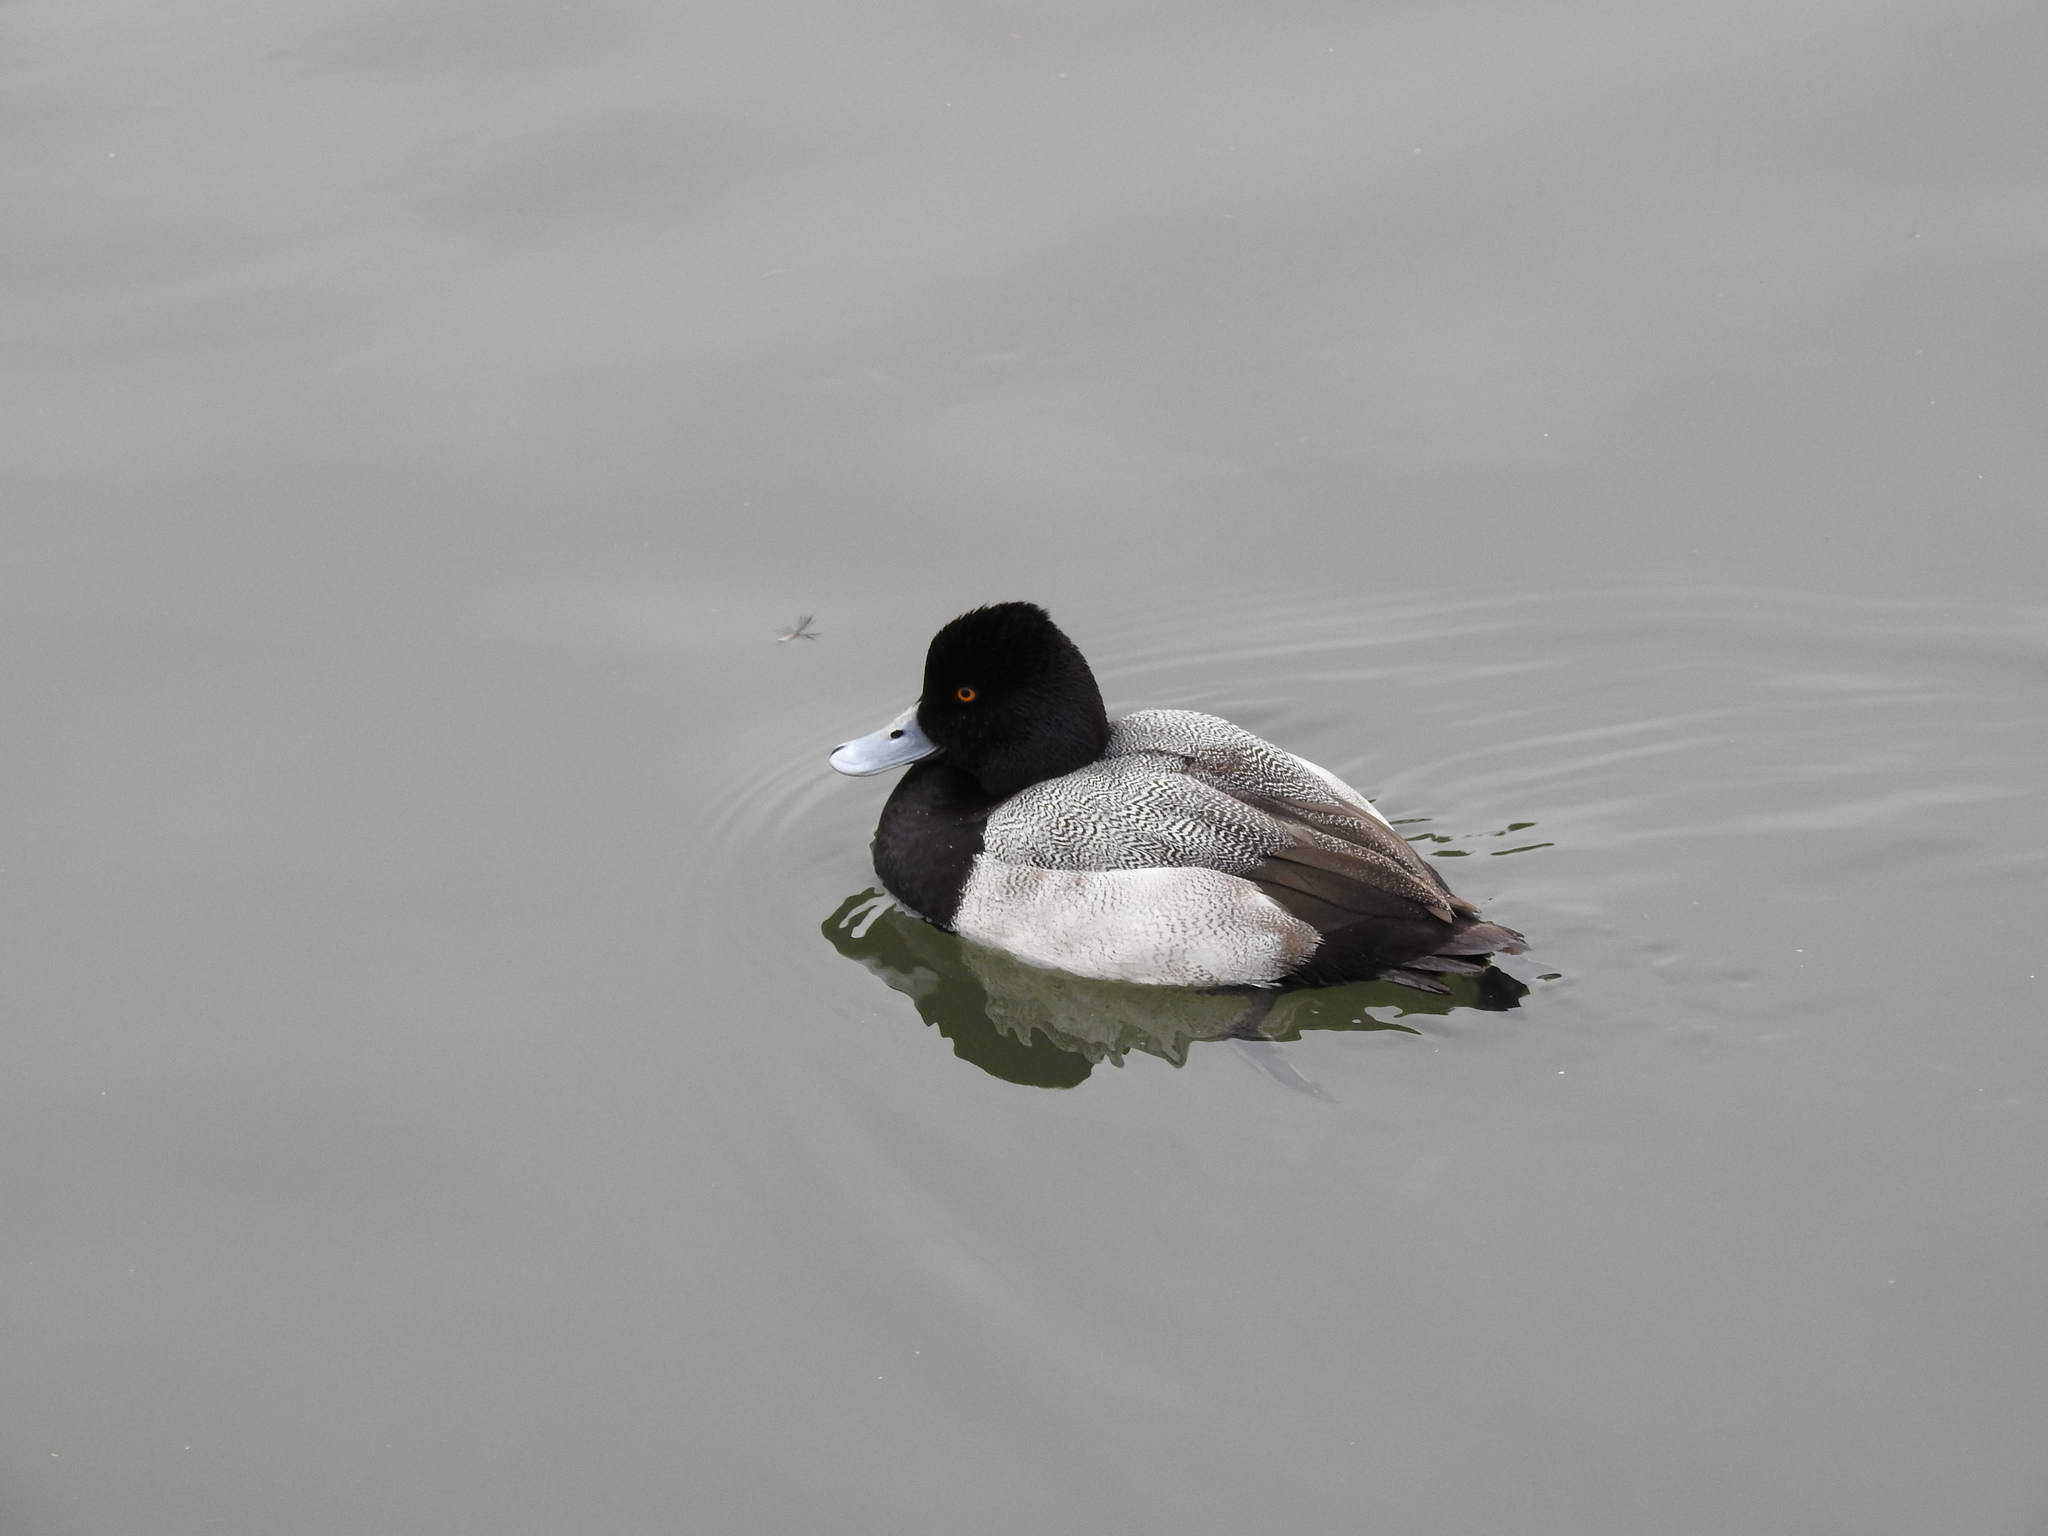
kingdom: Animalia
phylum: Chordata
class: Aves
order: Anseriformes
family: Anatidae
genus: Aythya
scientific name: Aythya affinis
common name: Lesser scaup
